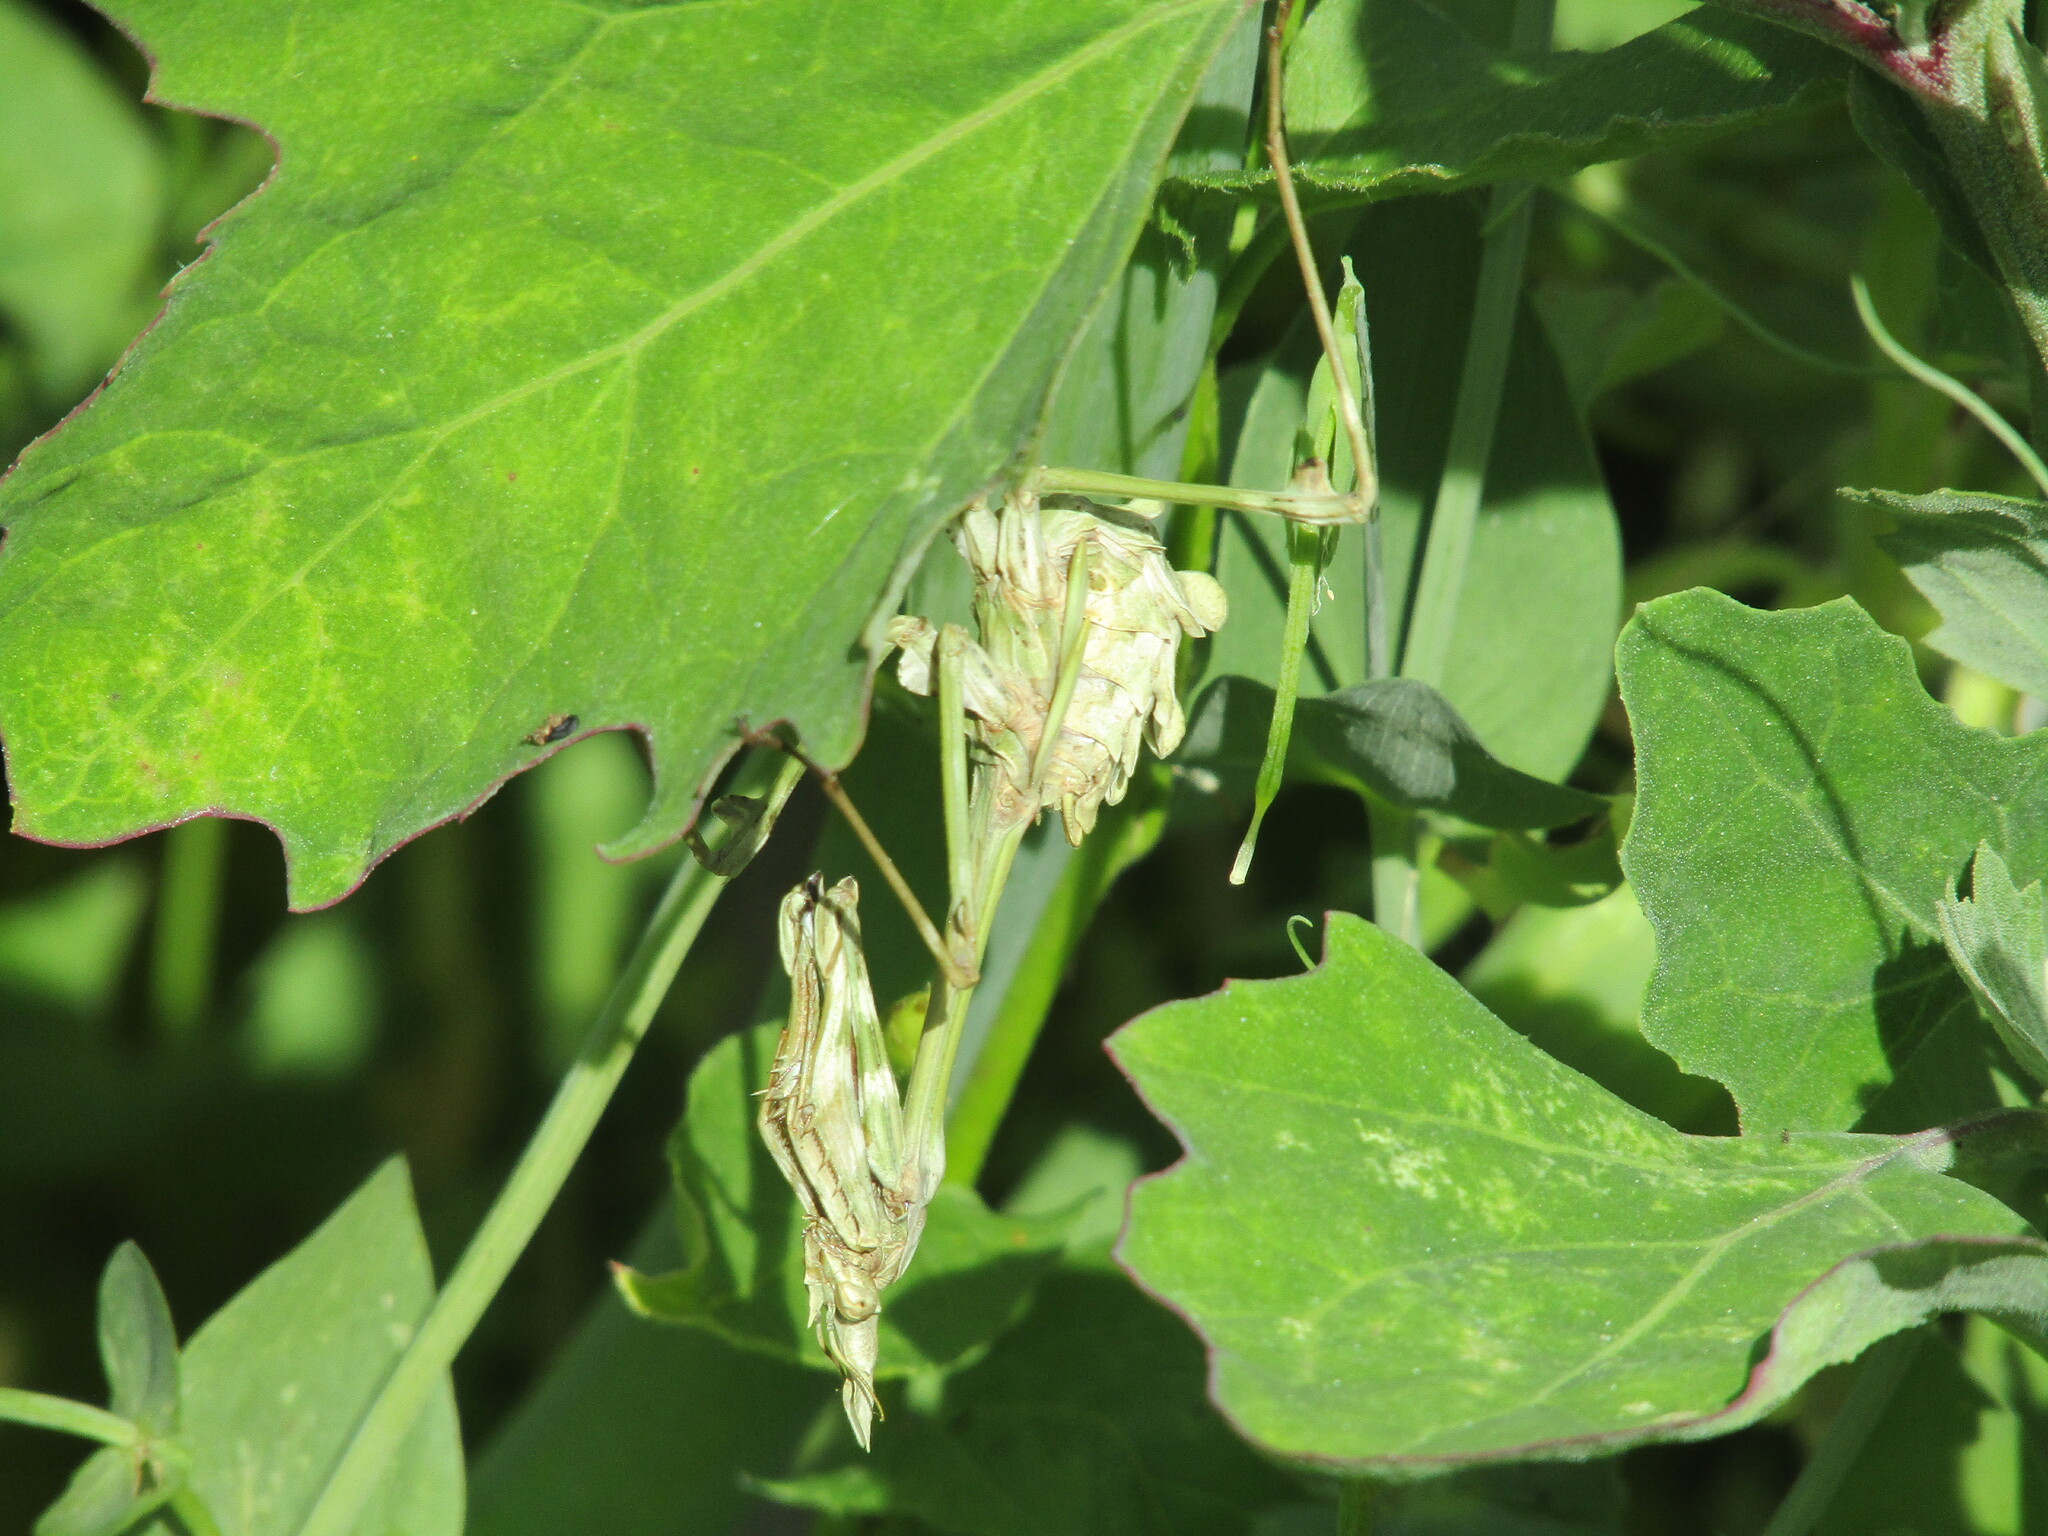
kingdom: Animalia
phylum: Arthropoda
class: Insecta
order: Mantodea
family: Empusidae
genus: Empusa
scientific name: Empusa fasciata
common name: Devil's mare
